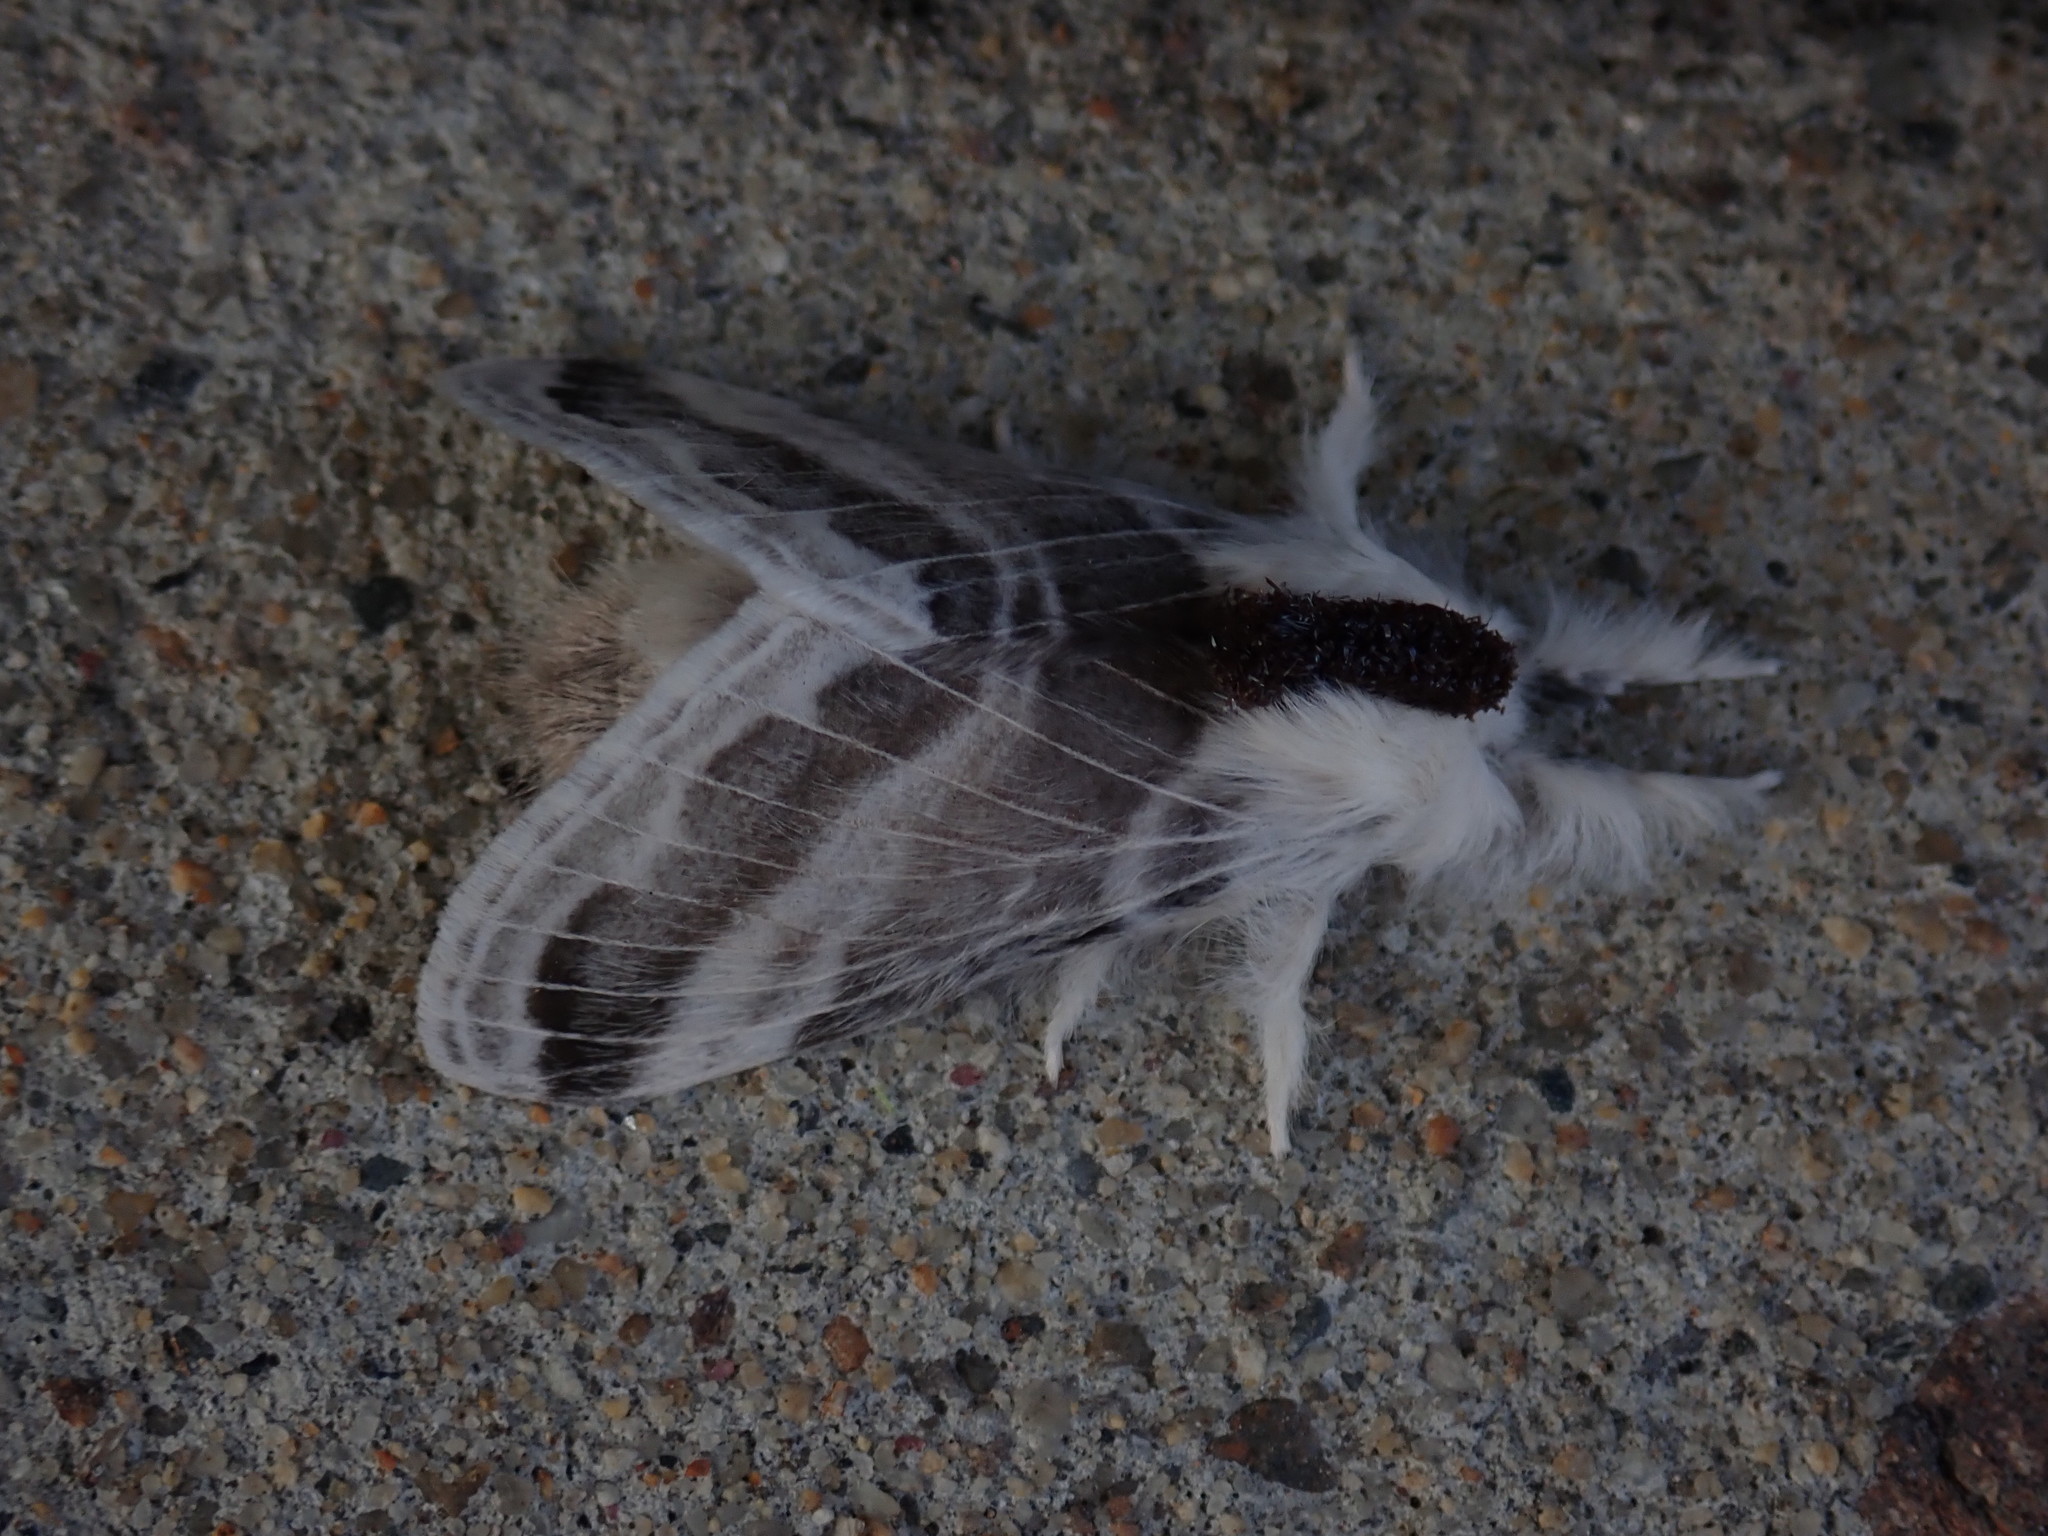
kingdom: Animalia
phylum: Arthropoda
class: Insecta
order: Lepidoptera
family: Lasiocampidae
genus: Tolype
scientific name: Tolype velleda
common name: Large tolype moth
